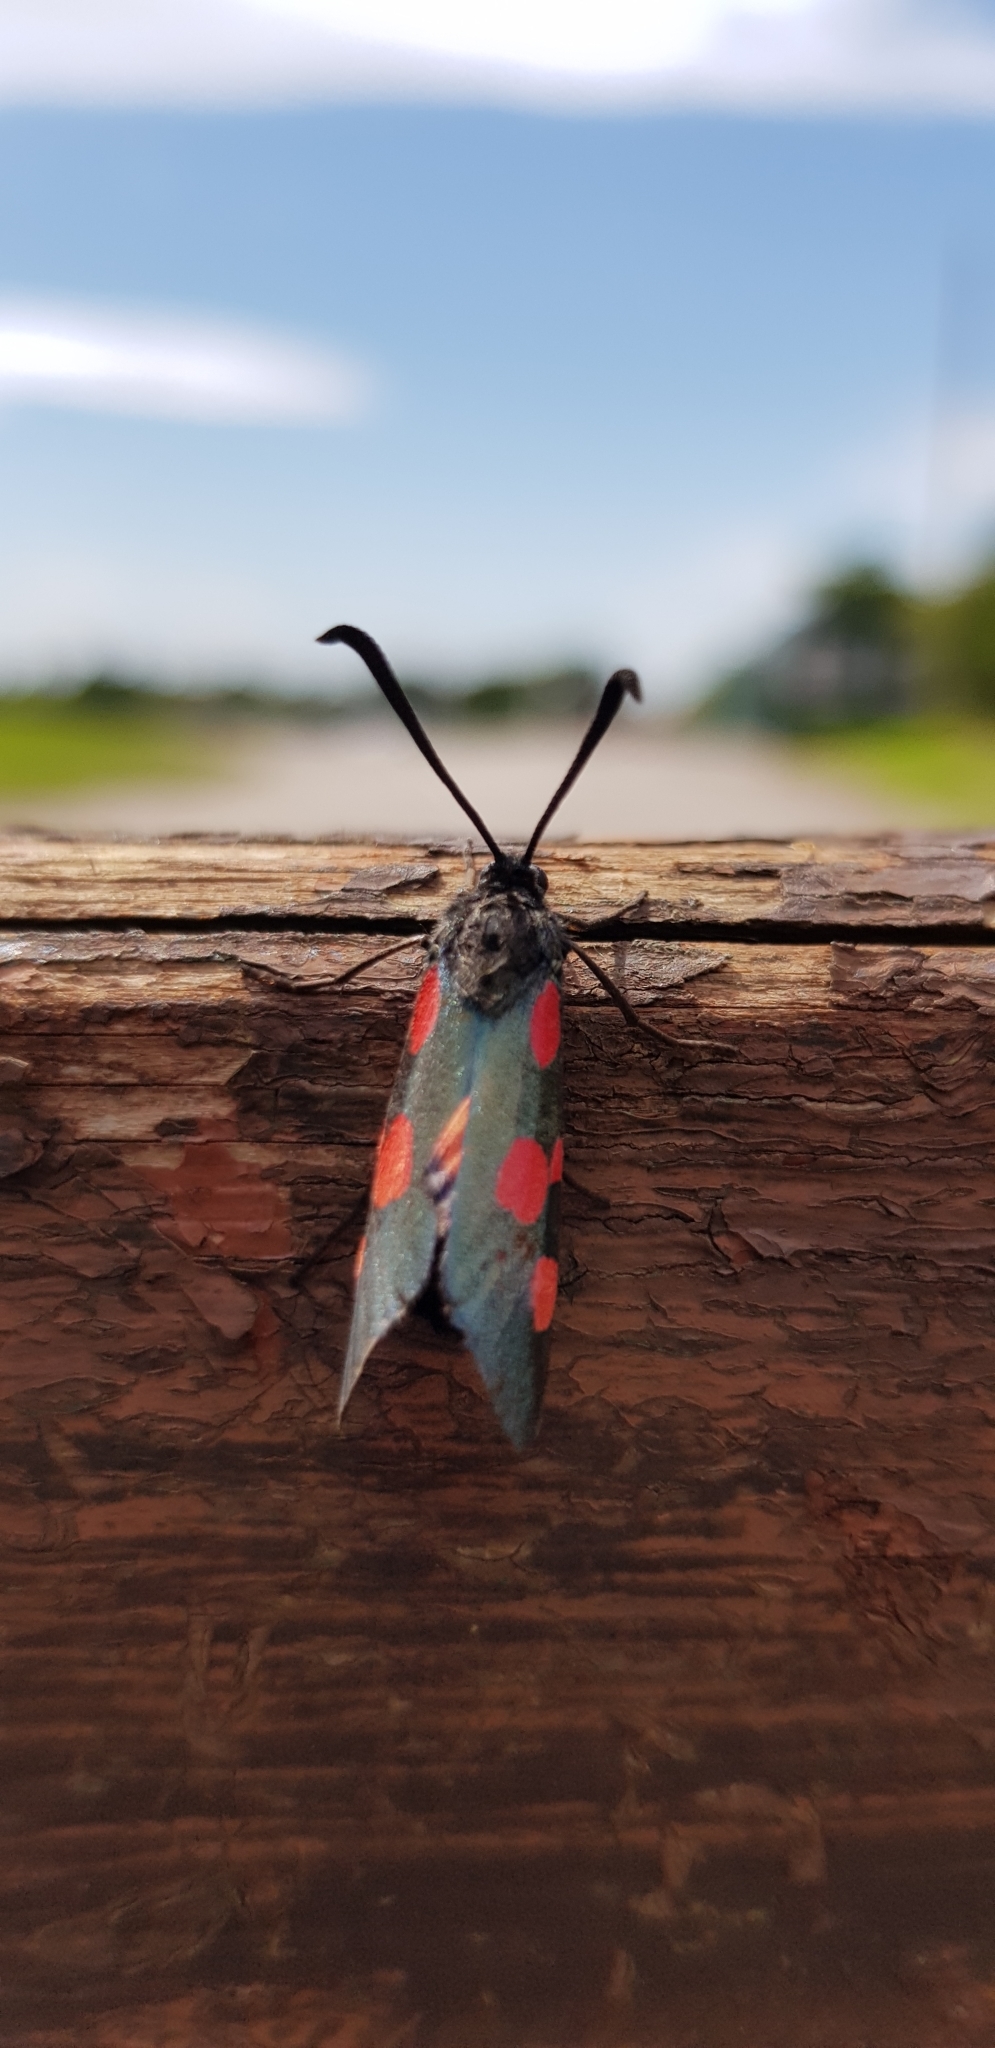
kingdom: Animalia
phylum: Arthropoda
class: Insecta
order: Lepidoptera
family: Zygaenidae
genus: Zygaena
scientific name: Zygaena lonicerae
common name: Narrow-bordered five-spot burnet
